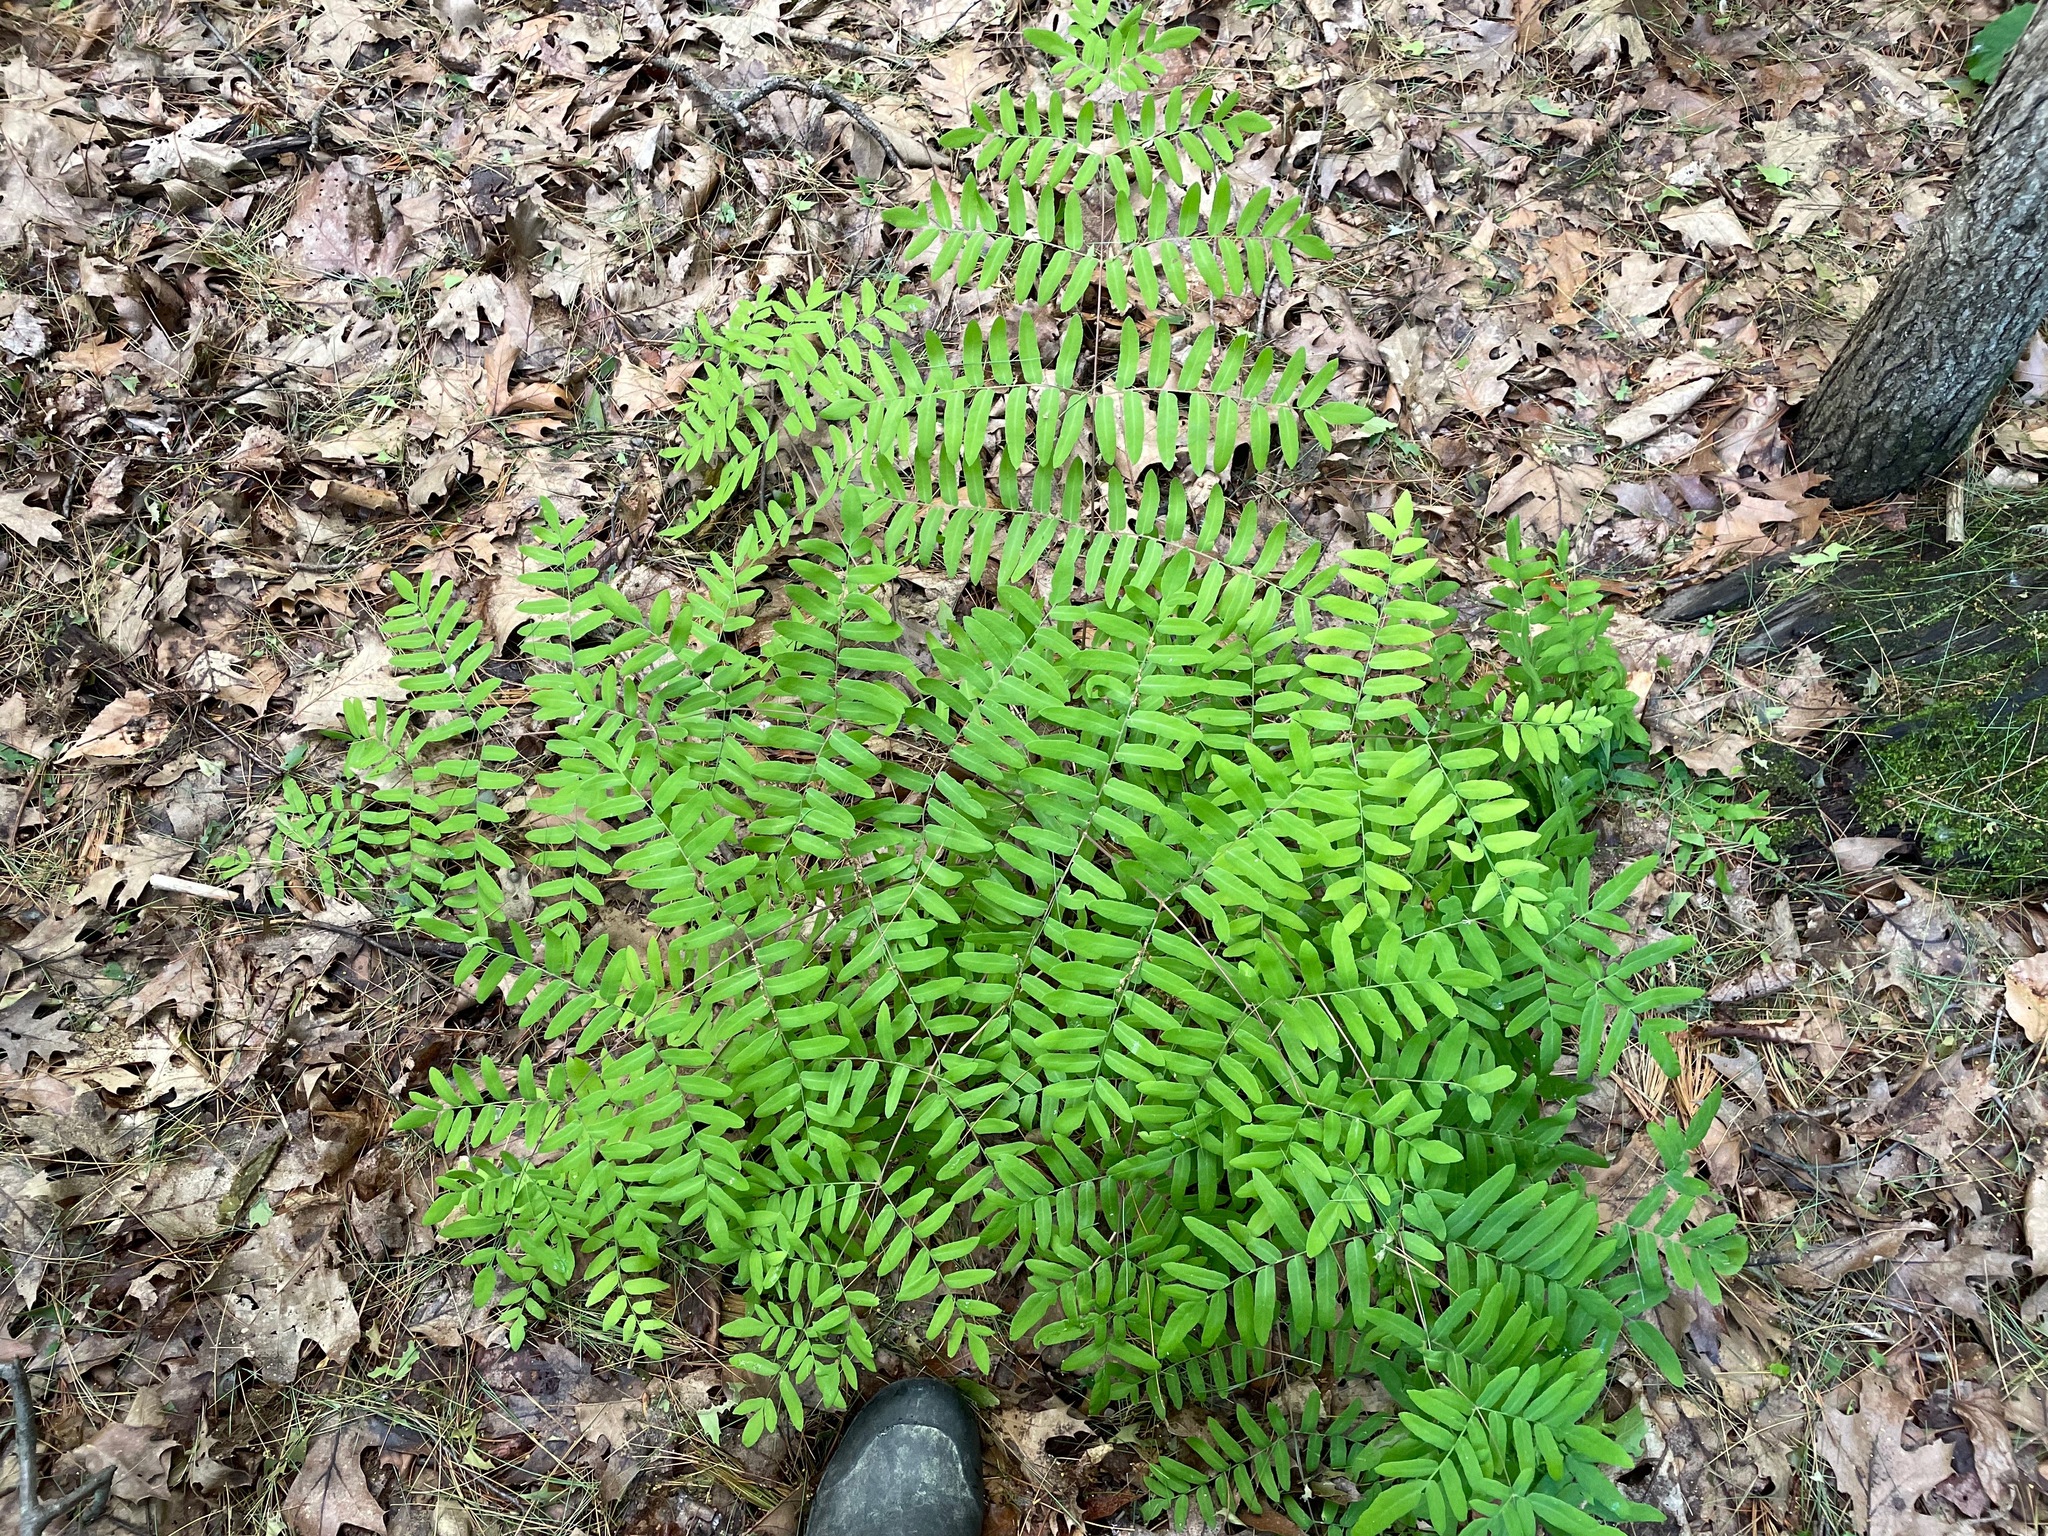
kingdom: Plantae
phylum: Tracheophyta
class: Polypodiopsida
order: Osmundales
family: Osmundaceae
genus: Osmunda
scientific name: Osmunda spectabilis
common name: American royal fern
